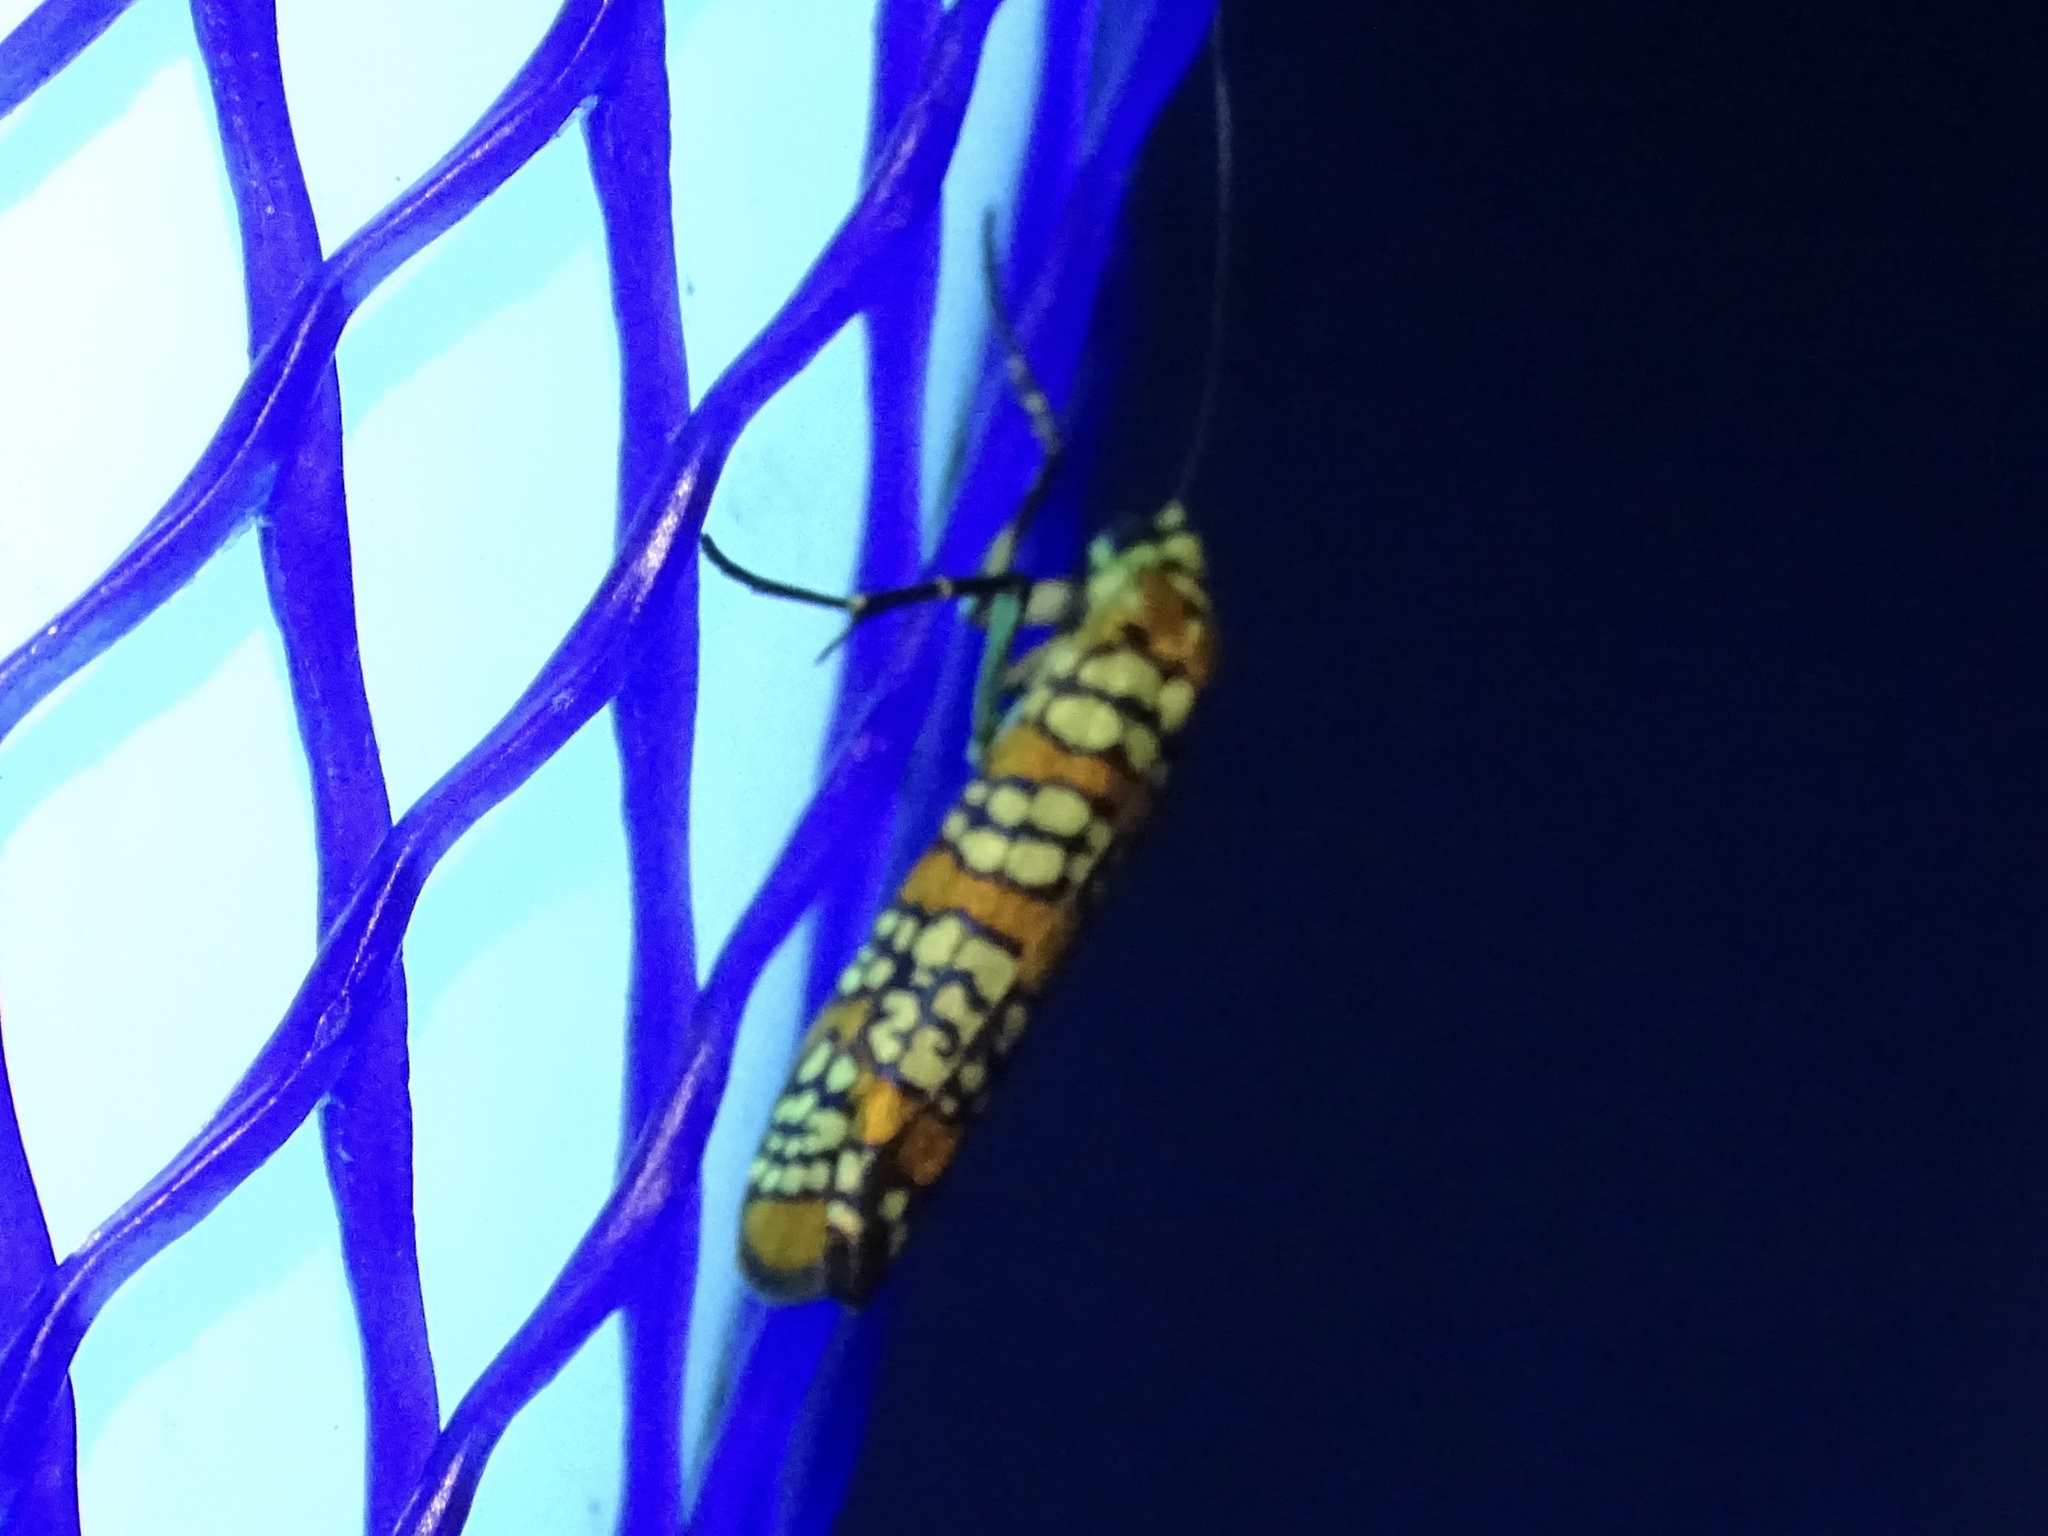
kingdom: Animalia
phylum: Arthropoda
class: Insecta
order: Lepidoptera
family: Attevidae
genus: Atteva
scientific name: Atteva punctella
